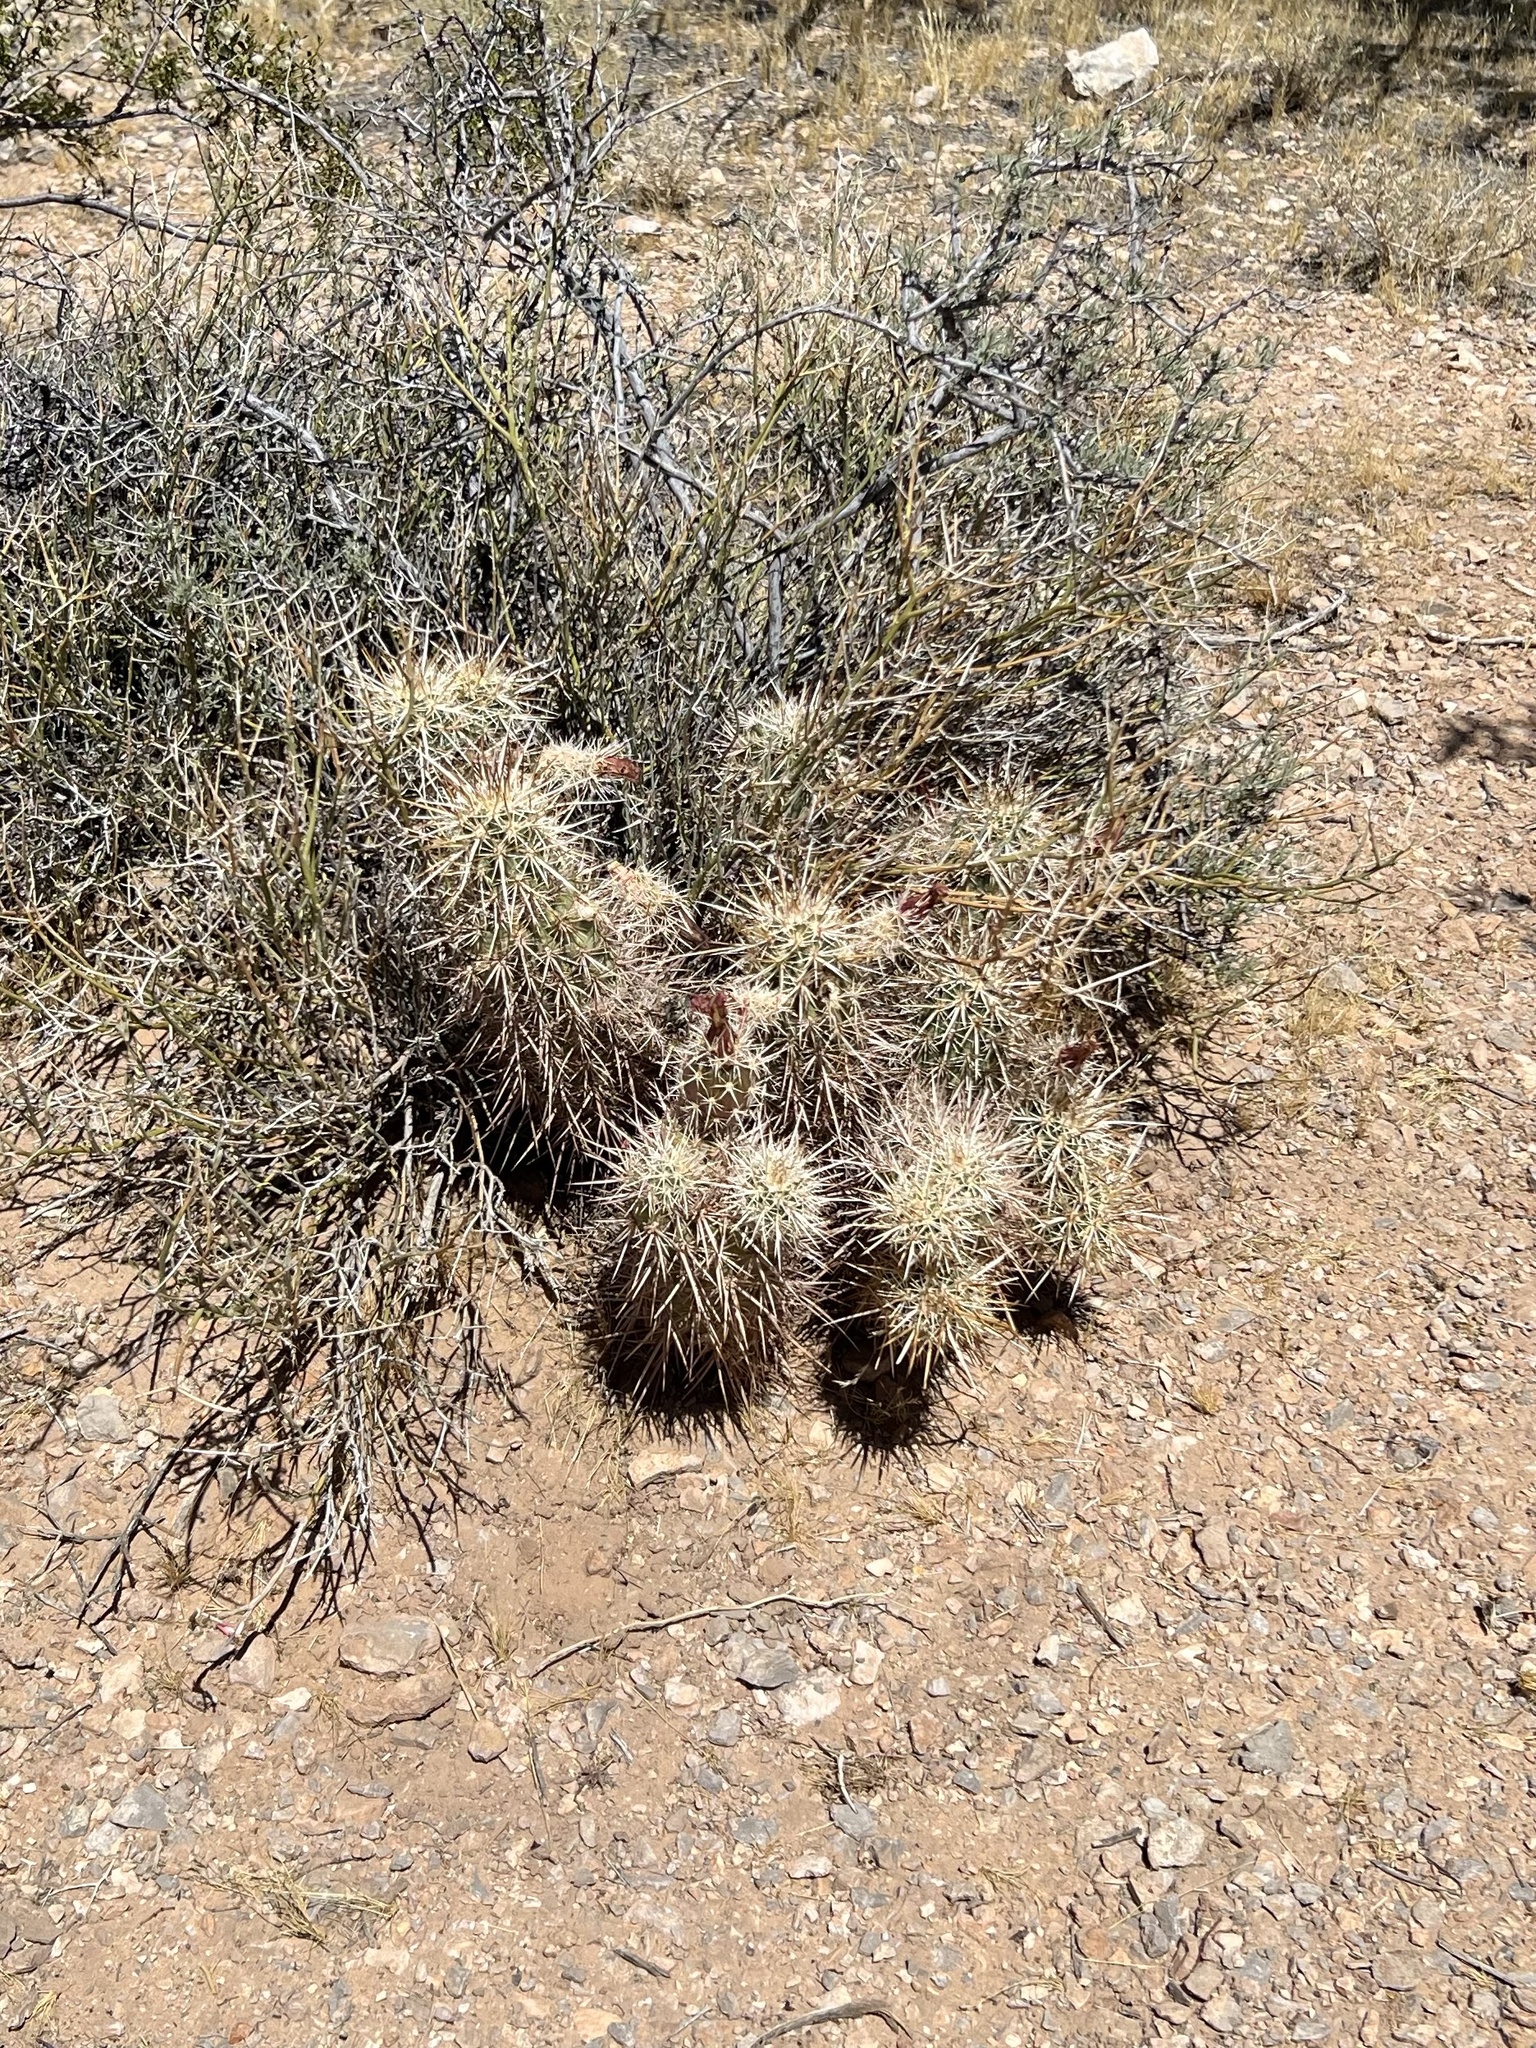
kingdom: Plantae
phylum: Tracheophyta
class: Magnoliopsida
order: Caryophyllales
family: Cactaceae
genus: Echinocereus
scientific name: Echinocereus engelmannii
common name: Engelmann's hedgehog cactus
